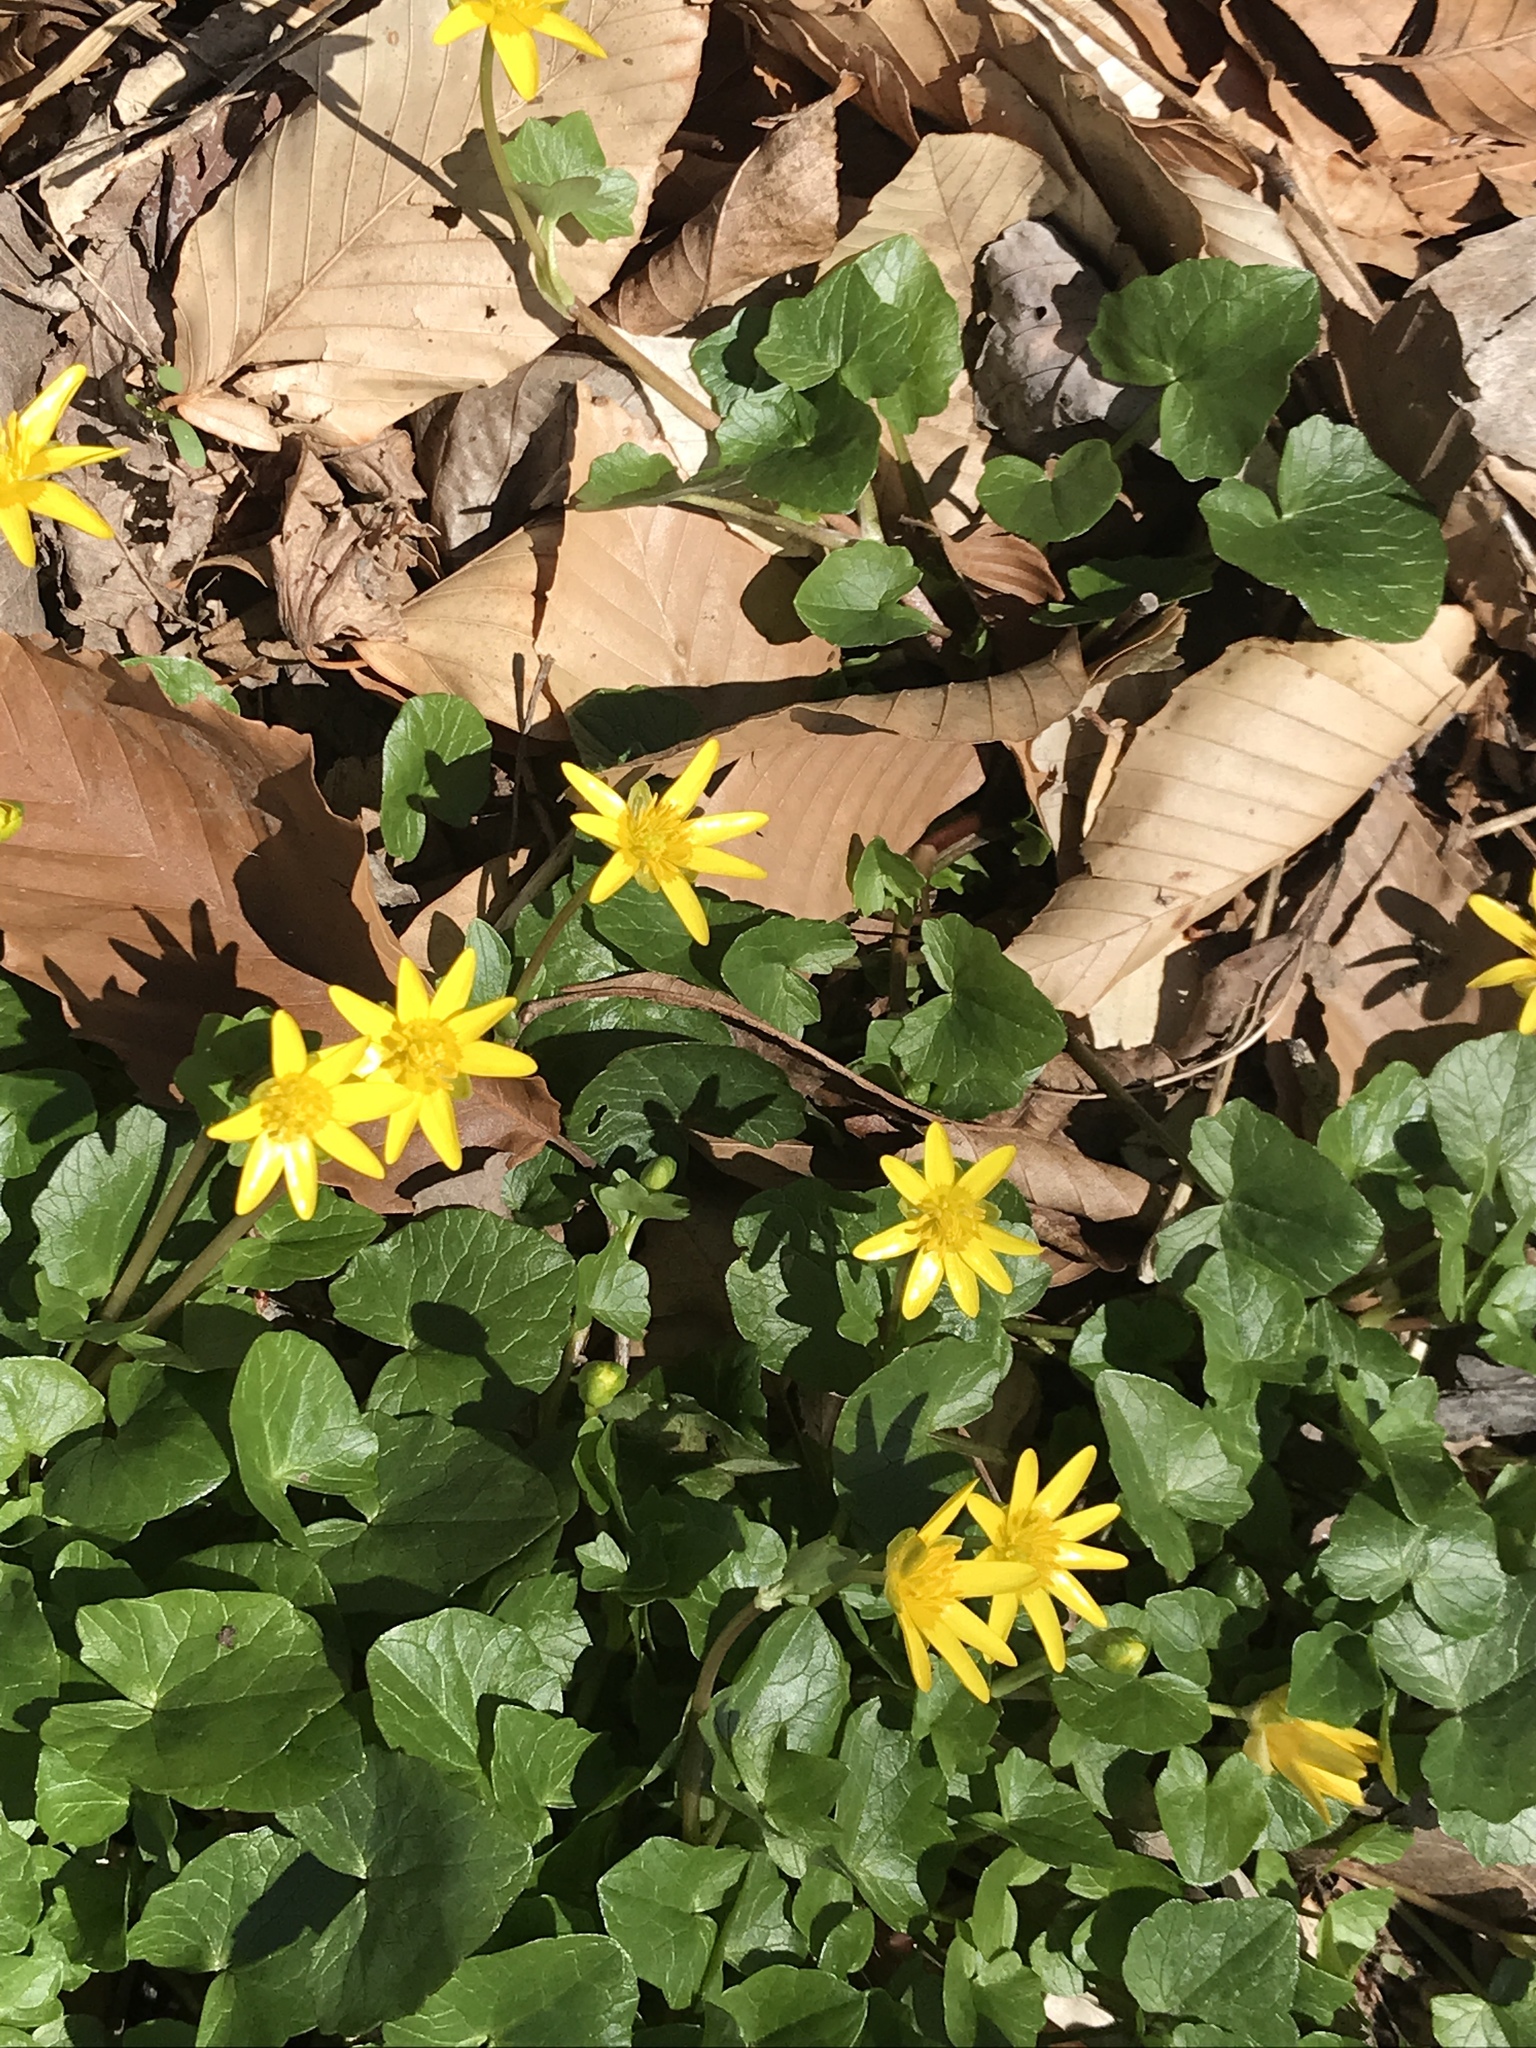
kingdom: Plantae
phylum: Tracheophyta
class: Magnoliopsida
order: Ranunculales
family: Ranunculaceae
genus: Ficaria
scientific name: Ficaria verna
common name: Lesser celandine
